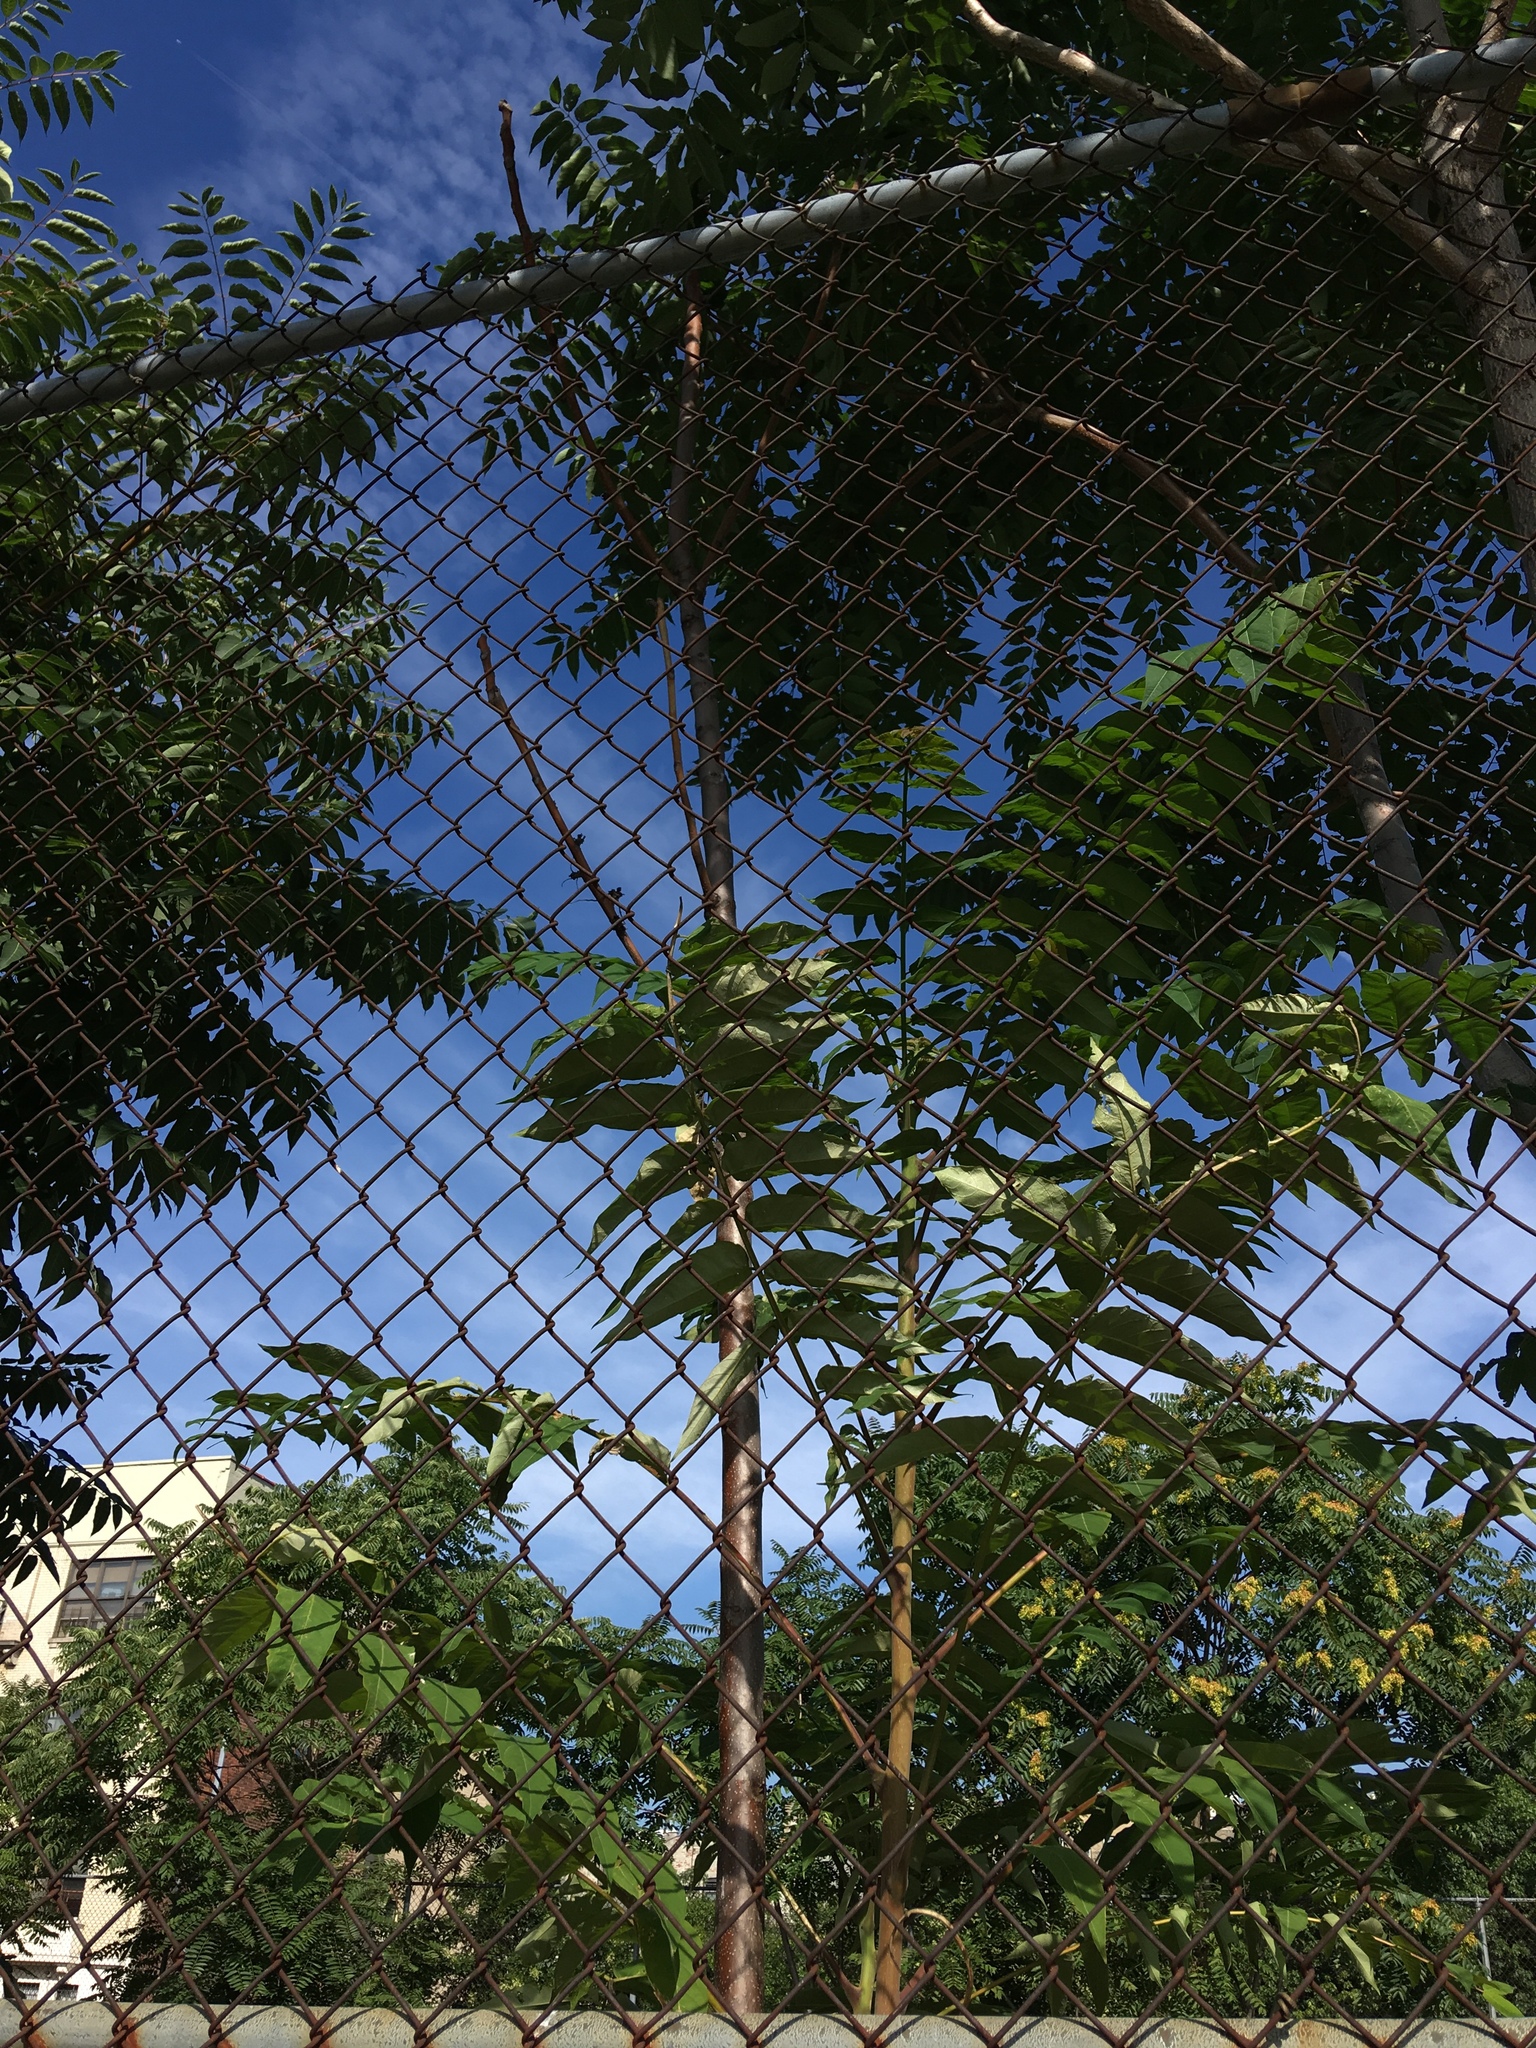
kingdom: Plantae
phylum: Tracheophyta
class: Magnoliopsida
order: Sapindales
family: Simaroubaceae
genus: Ailanthus
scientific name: Ailanthus altissima
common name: Tree-of-heaven
